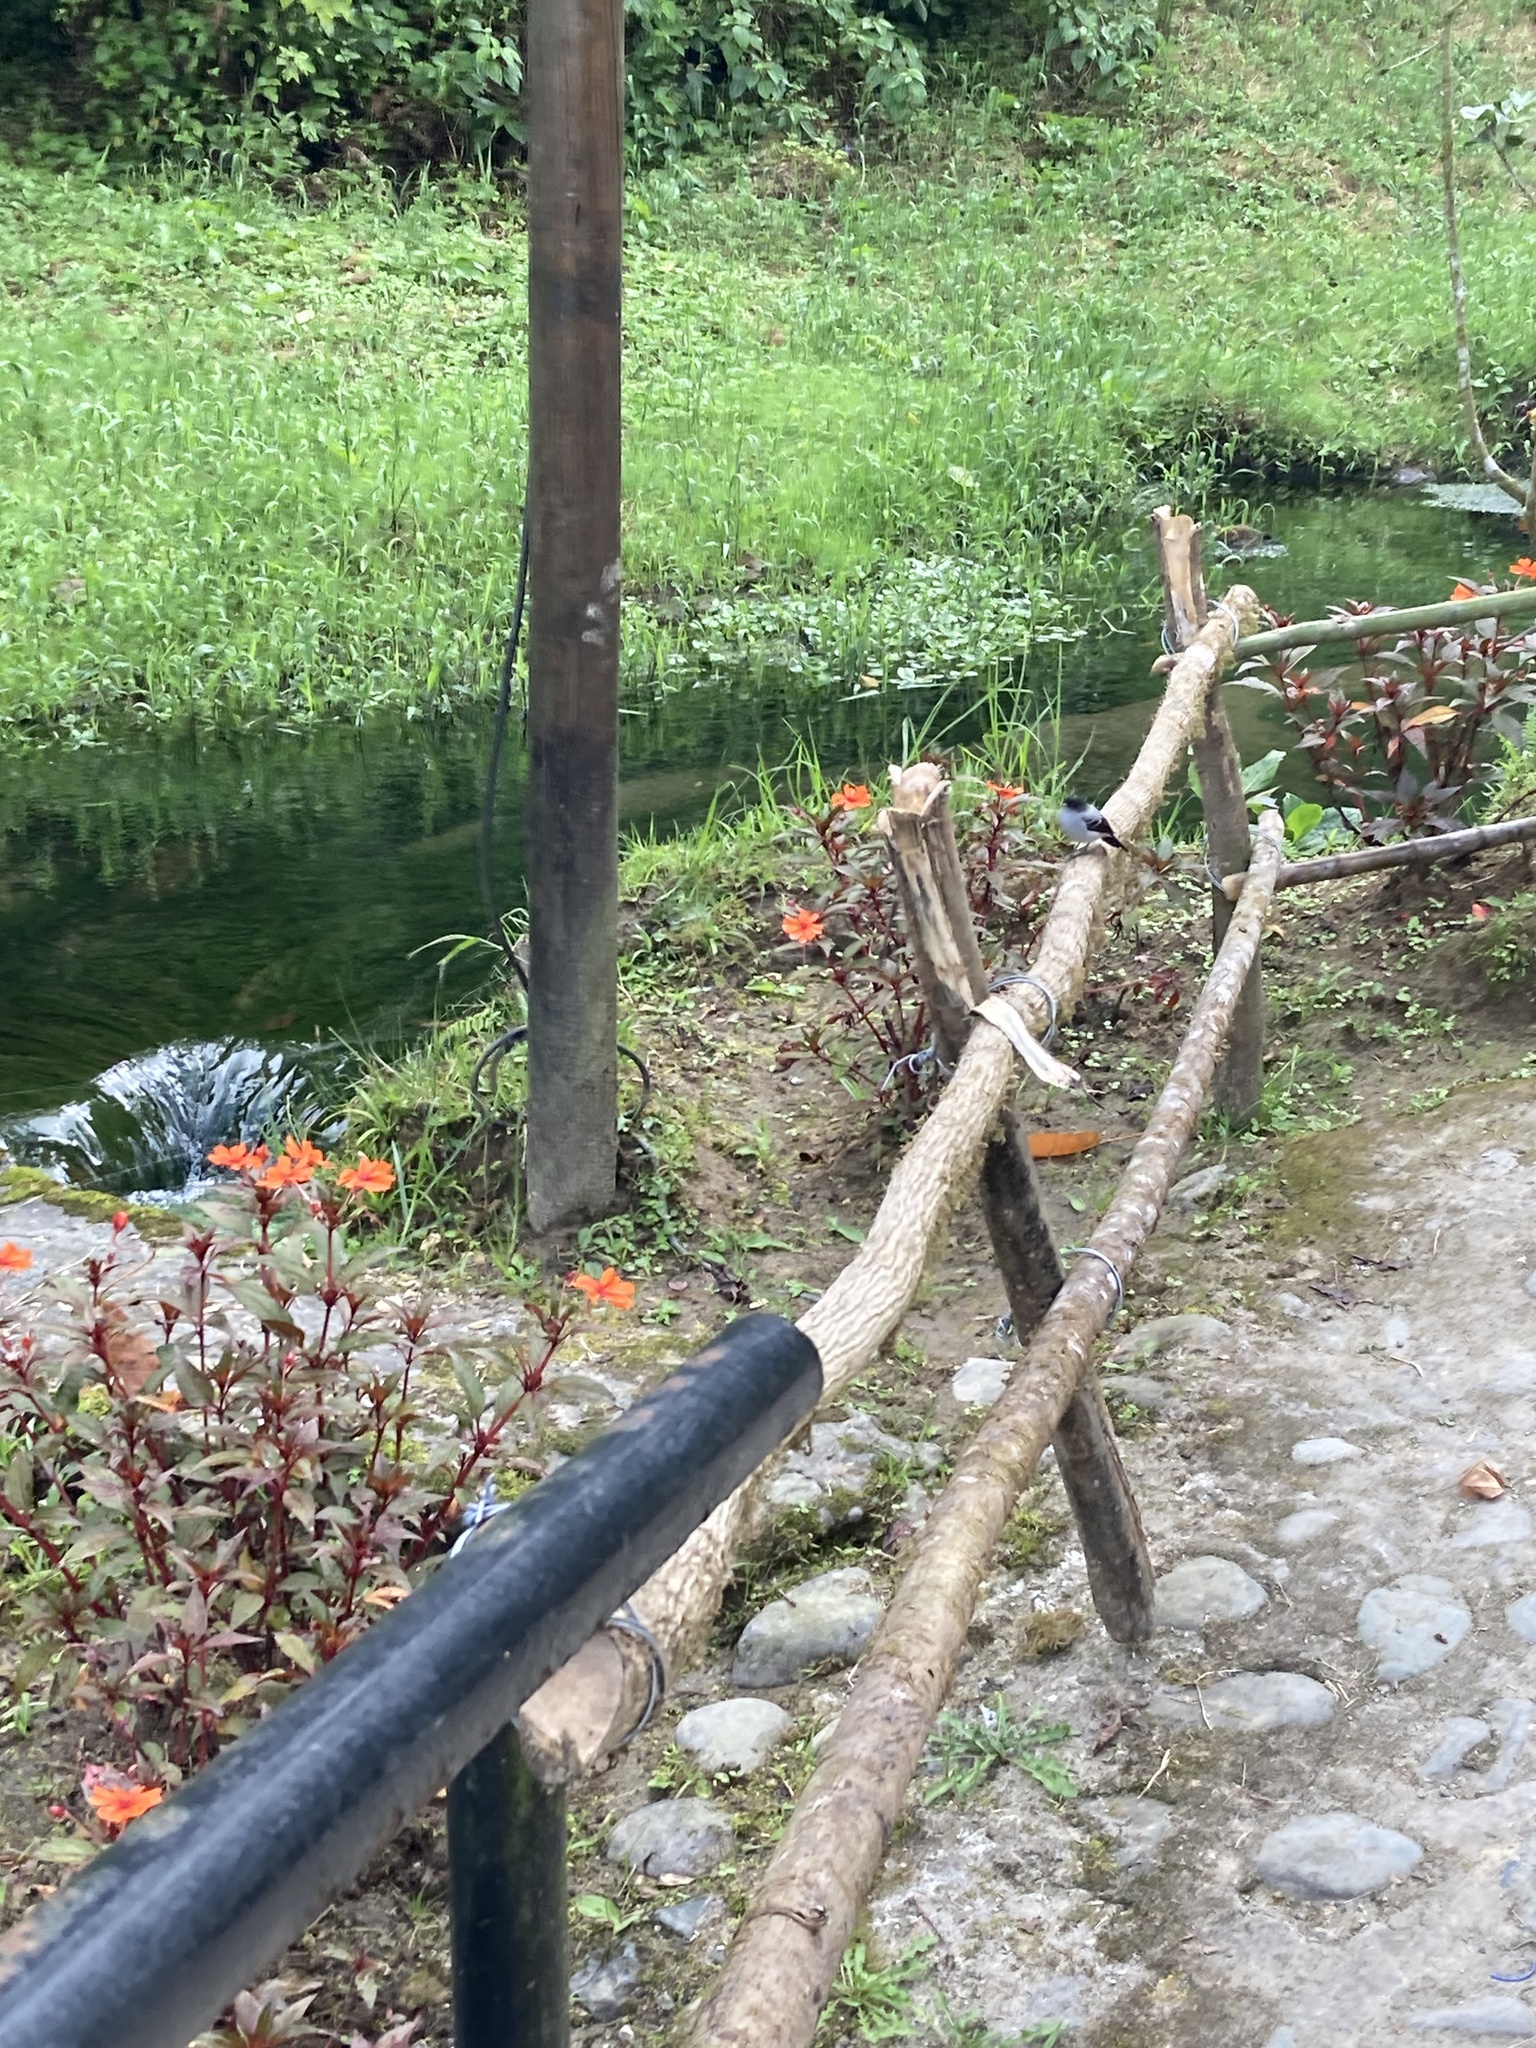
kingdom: Animalia
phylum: Chordata
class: Aves
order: Passeriformes
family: Tyrannidae
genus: Serpophaga
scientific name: Serpophaga cinerea
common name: Torrent tyrannulet
